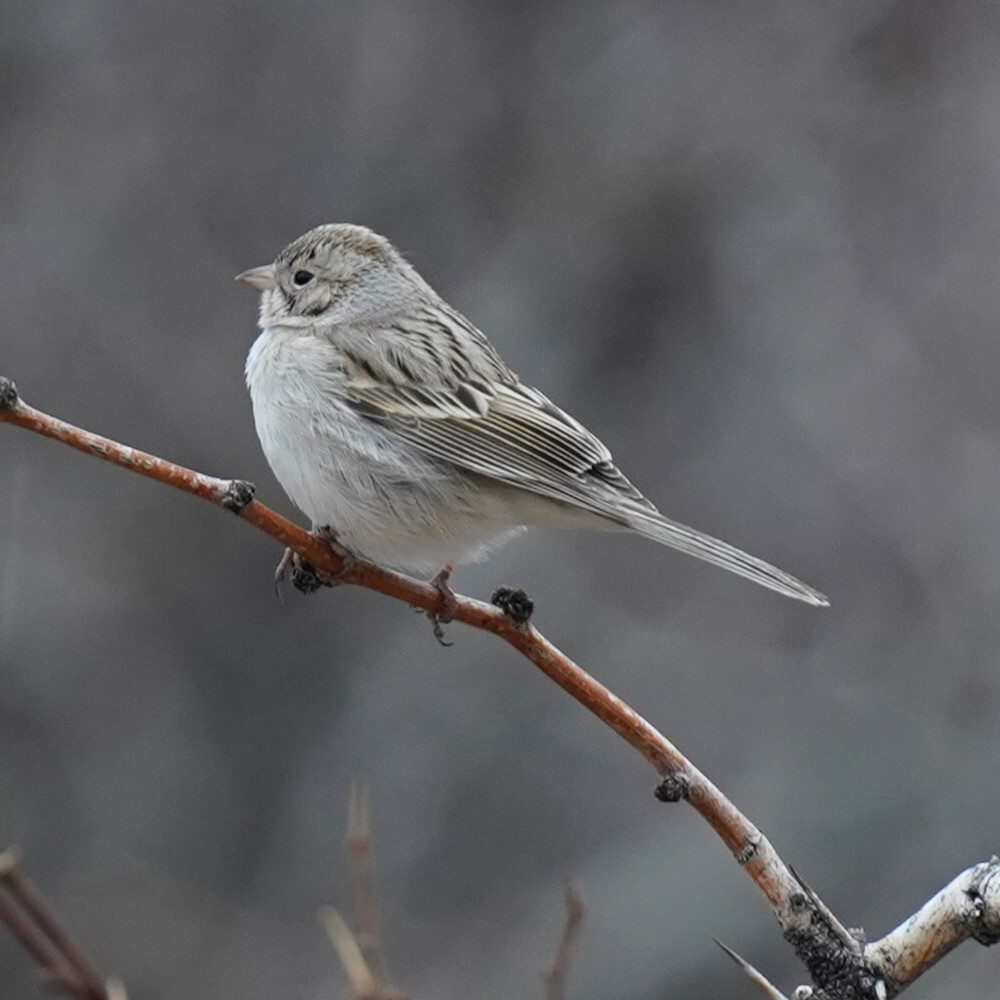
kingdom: Animalia
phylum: Chordata
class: Aves
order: Passeriformes
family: Passerellidae
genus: Spizella
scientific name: Spizella breweri
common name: Brewer's sparrow
